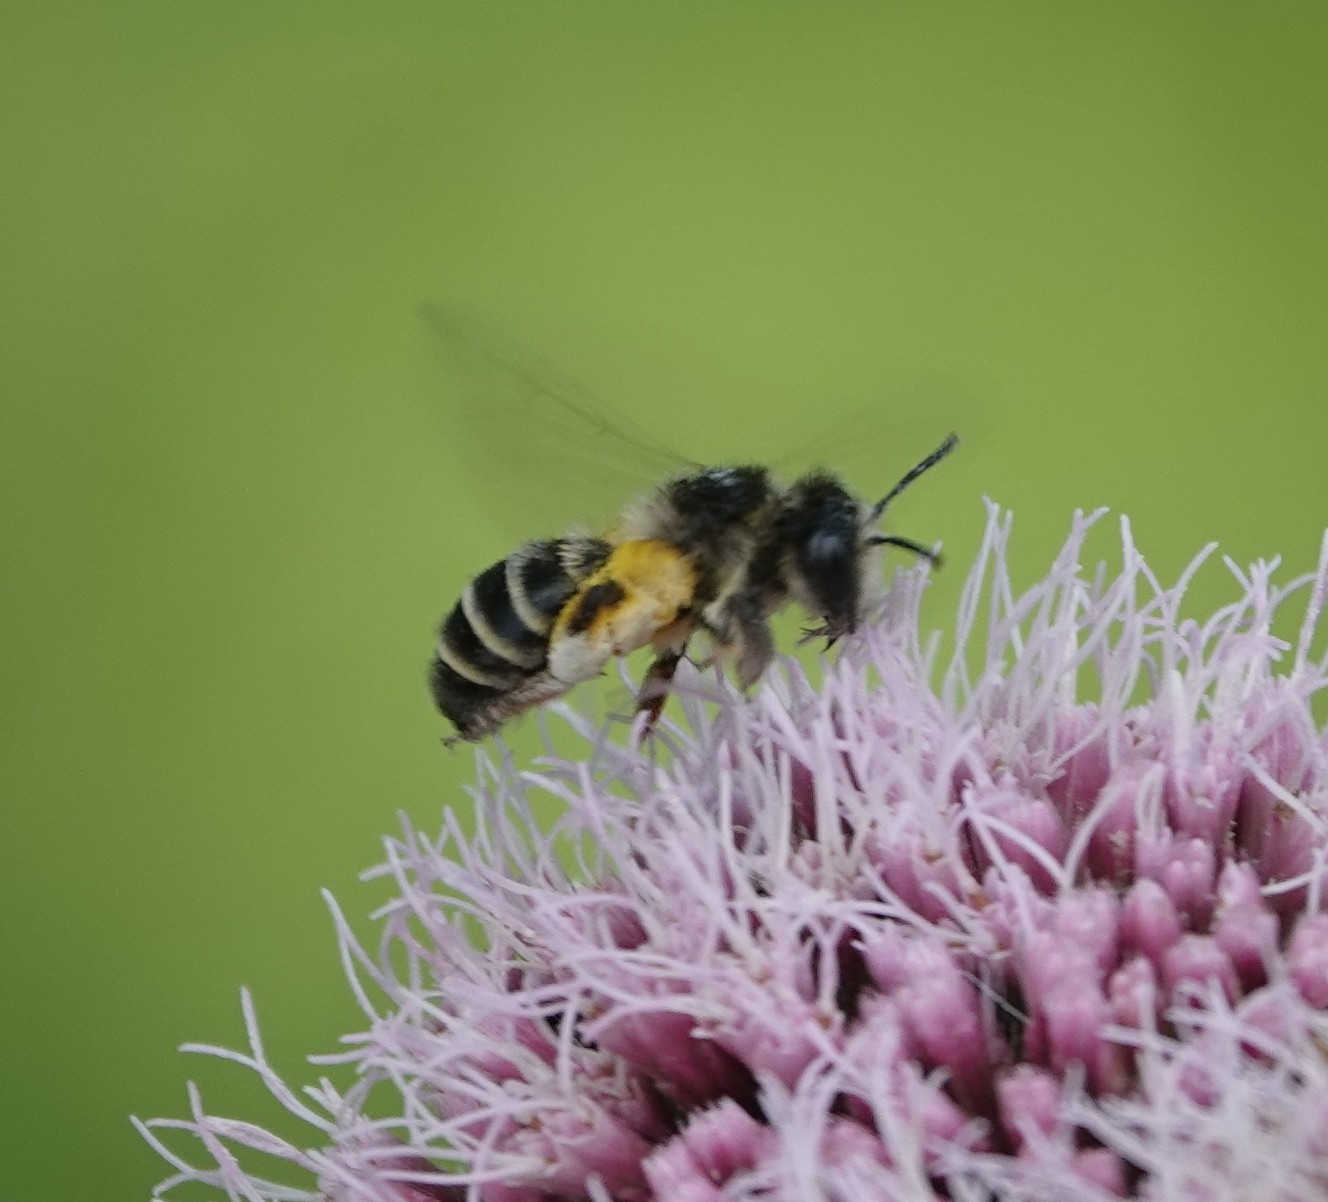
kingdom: Animalia
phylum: Arthropoda
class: Insecta
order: Hymenoptera
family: Andrenidae
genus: Andrena
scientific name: Andrena denticulata
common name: Grey-banded mining bee
